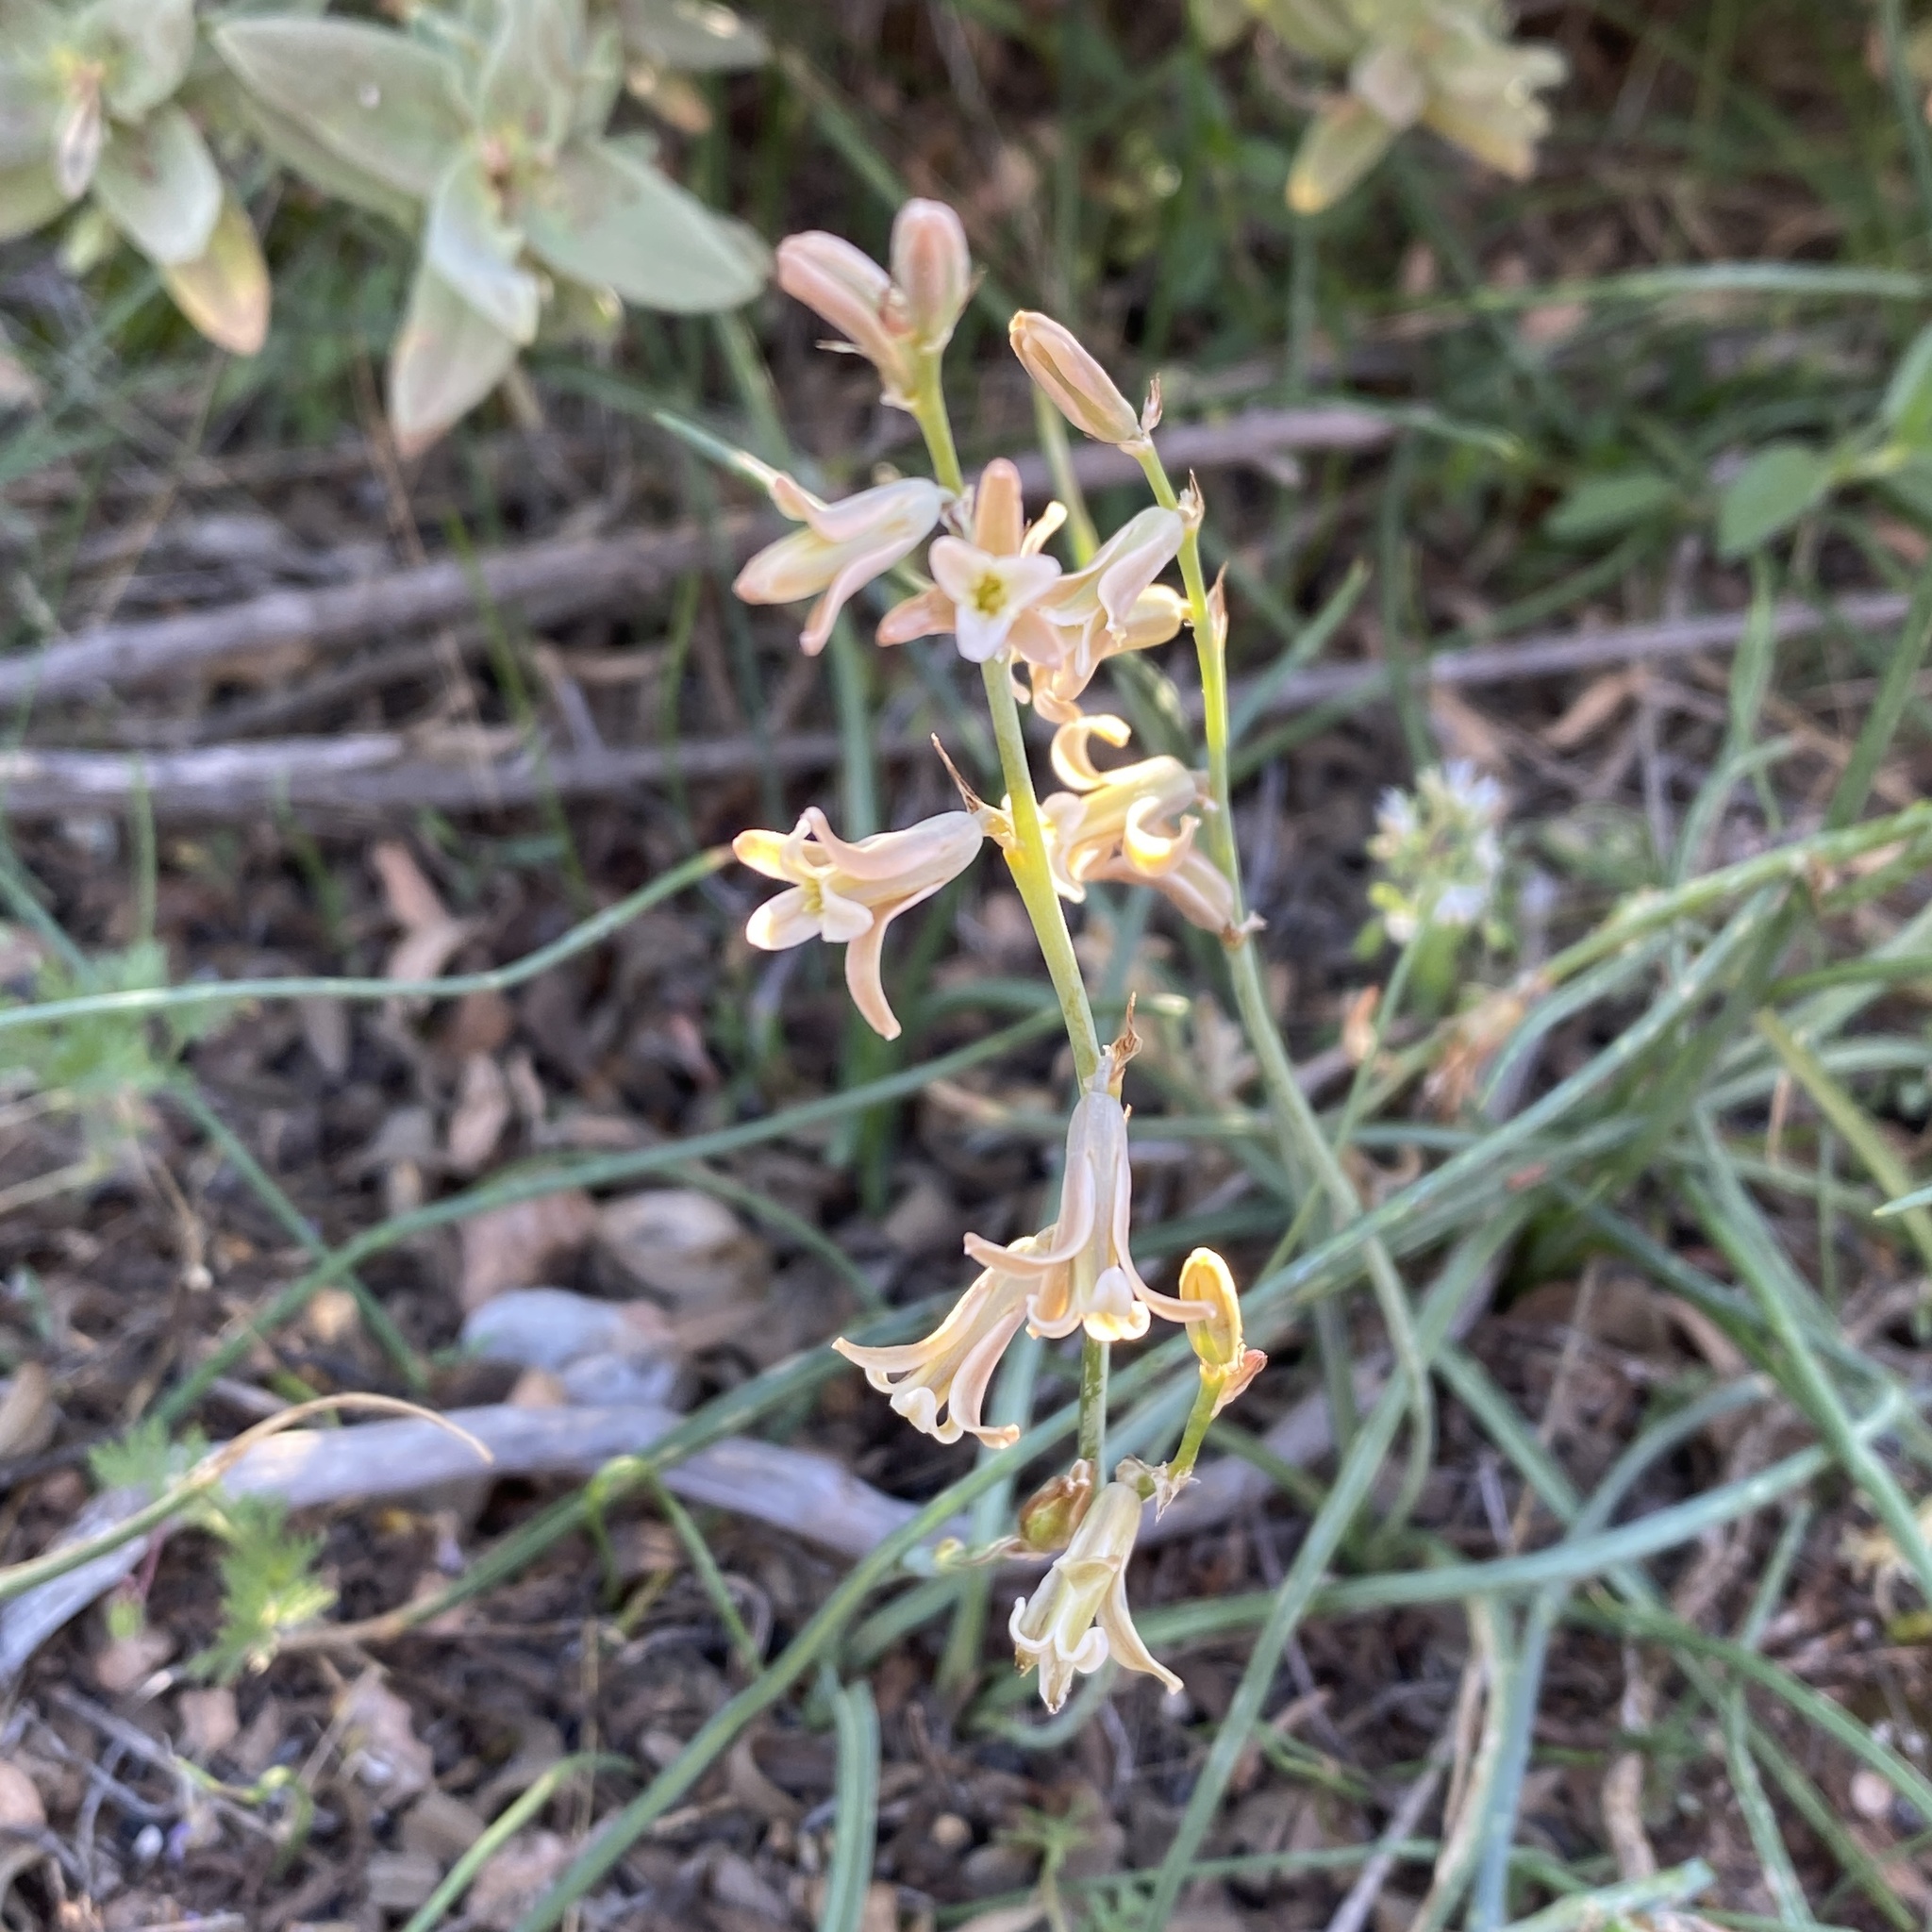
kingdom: Plantae
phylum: Tracheophyta
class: Liliopsida
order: Asparagales
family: Asparagaceae
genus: Dipcadi
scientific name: Dipcadi serotinum
